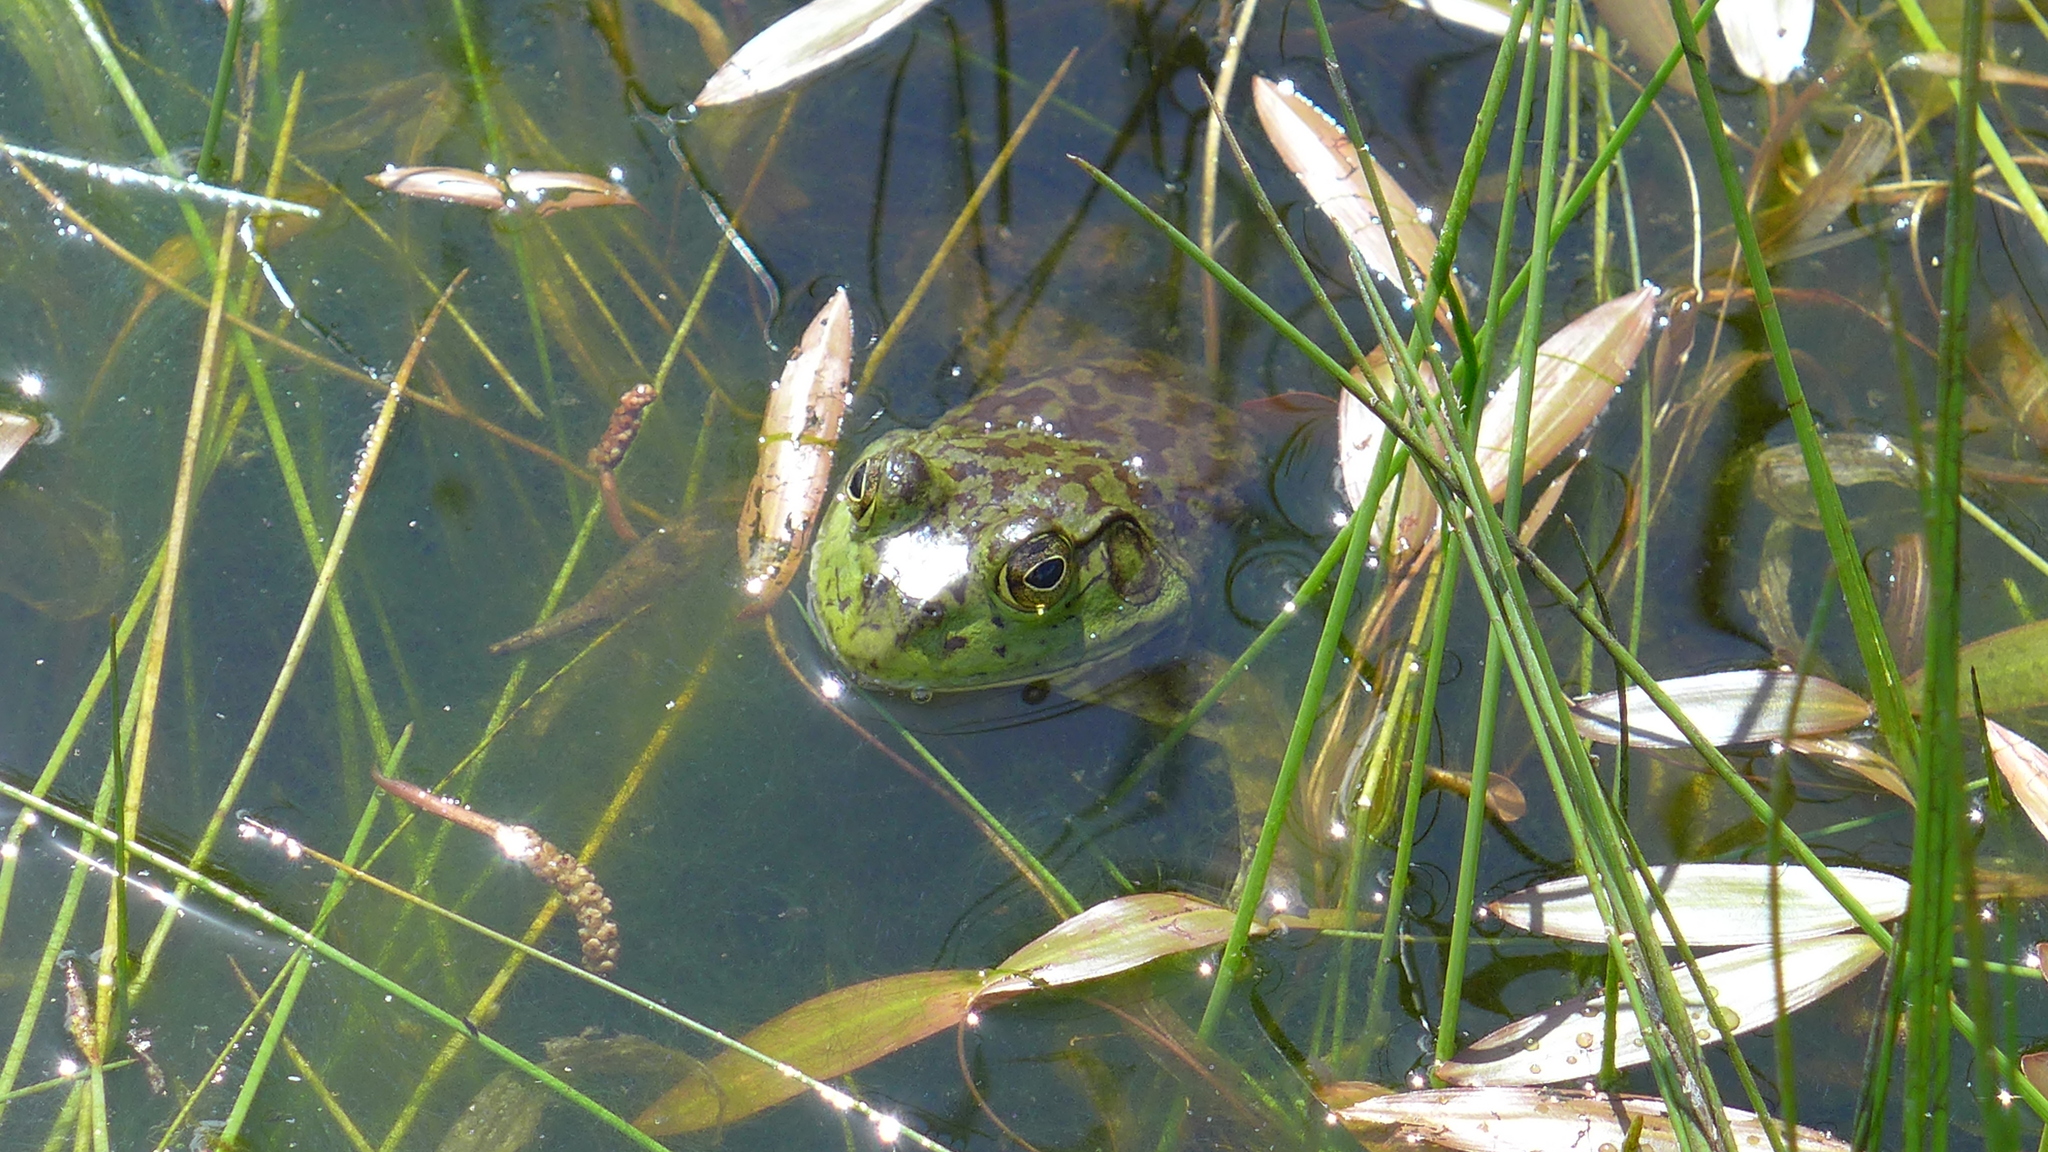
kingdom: Animalia
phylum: Chordata
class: Amphibia
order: Anura
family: Ranidae
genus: Lithobates
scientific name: Lithobates catesbeianus
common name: American bullfrog
